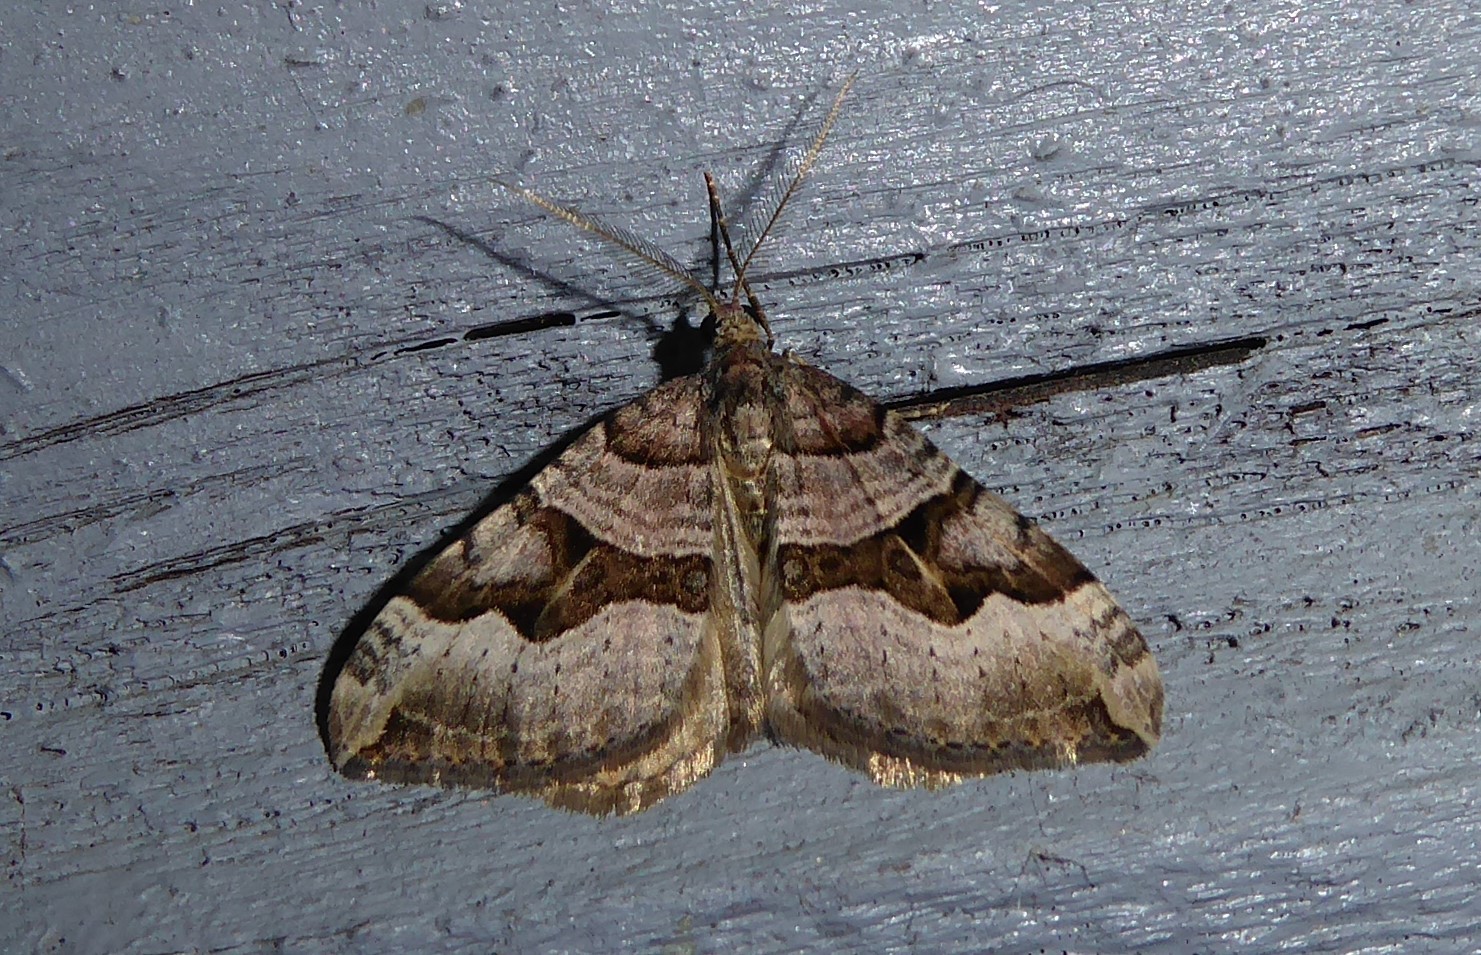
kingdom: Animalia
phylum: Arthropoda
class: Insecta
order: Lepidoptera
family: Geometridae
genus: Xanthorhoe
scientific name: Xanthorhoe semifissata
